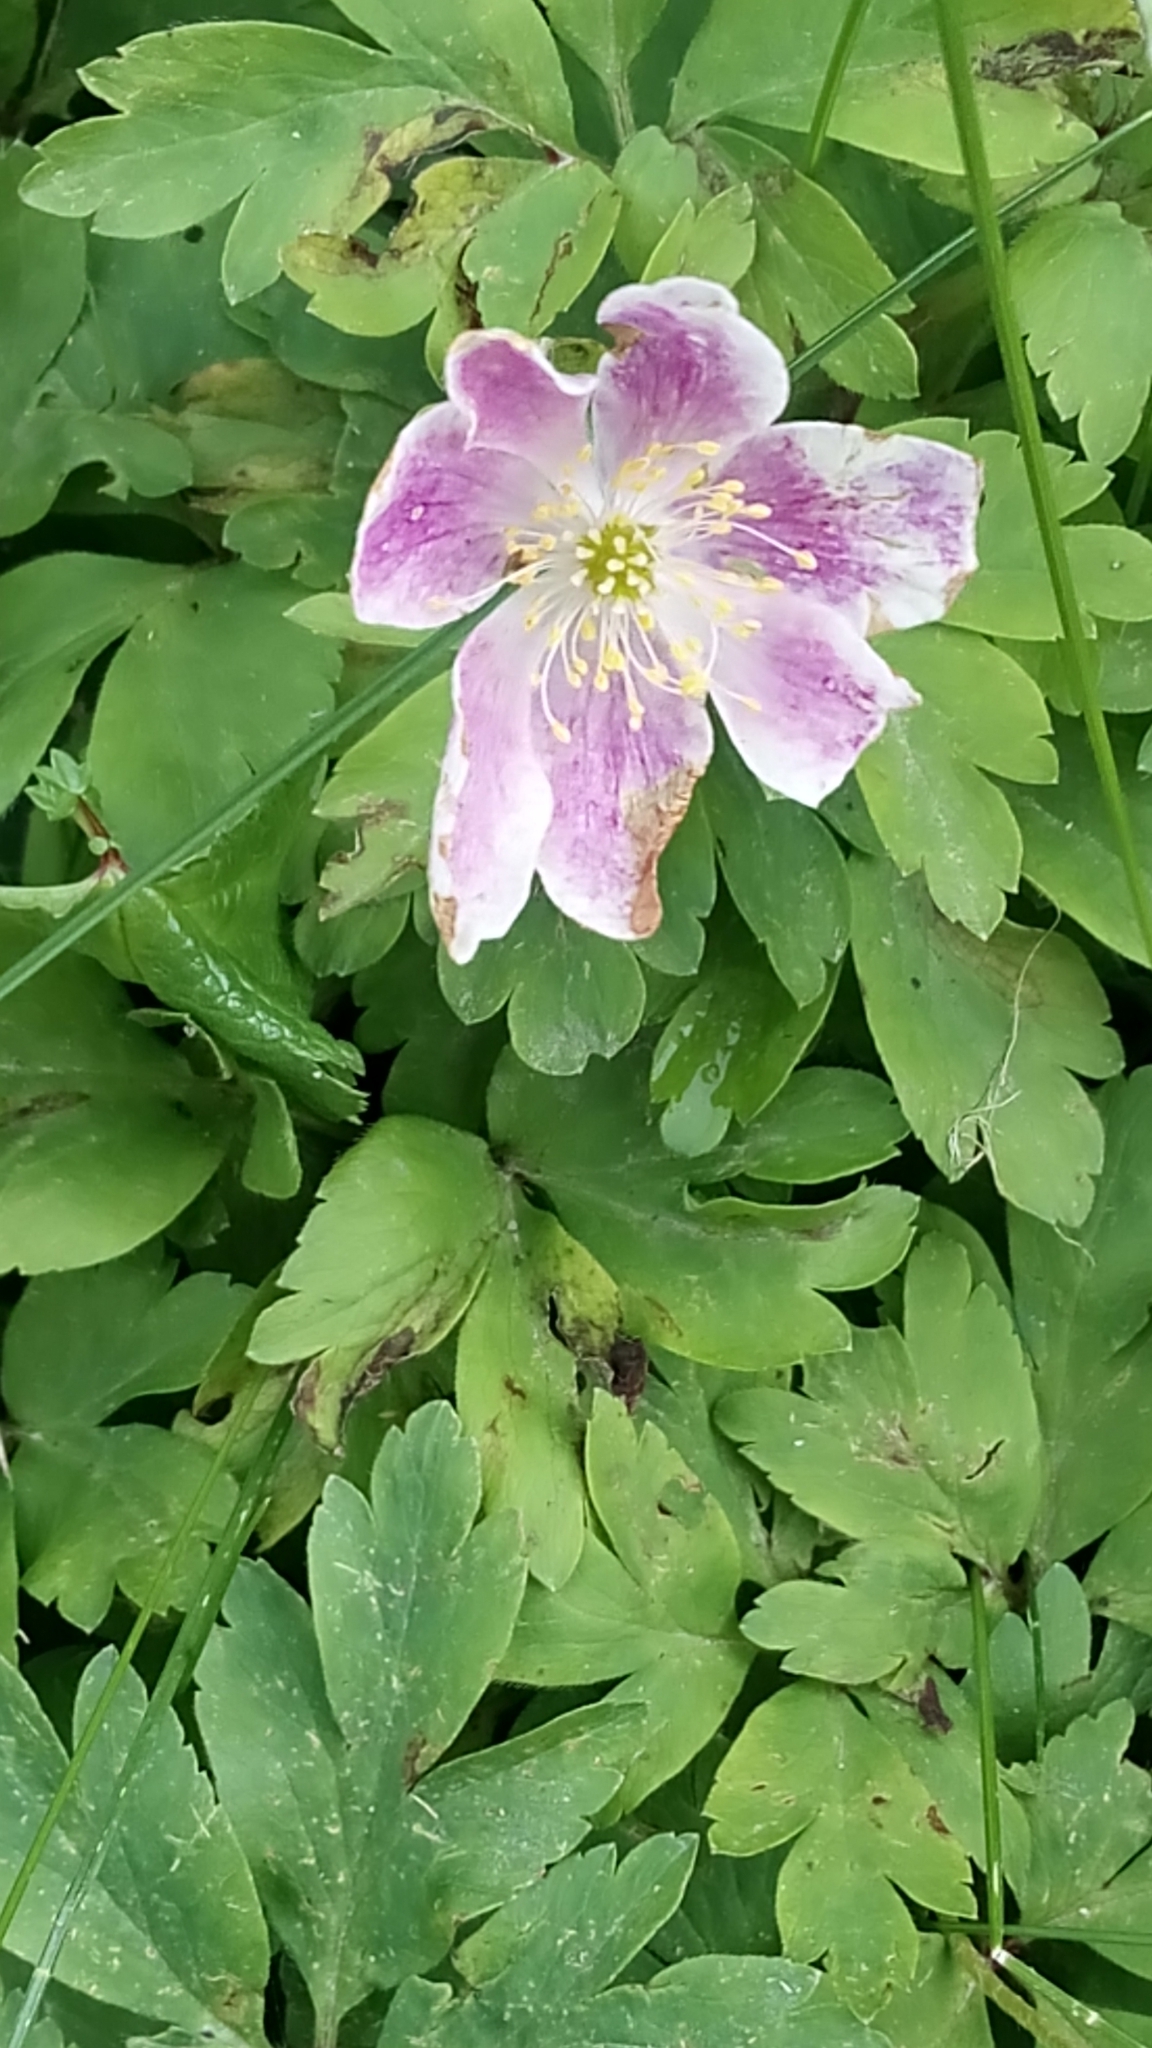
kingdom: Plantae
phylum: Tracheophyta
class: Magnoliopsida
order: Ranunculales
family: Ranunculaceae
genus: Anemone
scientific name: Anemone nemorosa
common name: Wood anemone
